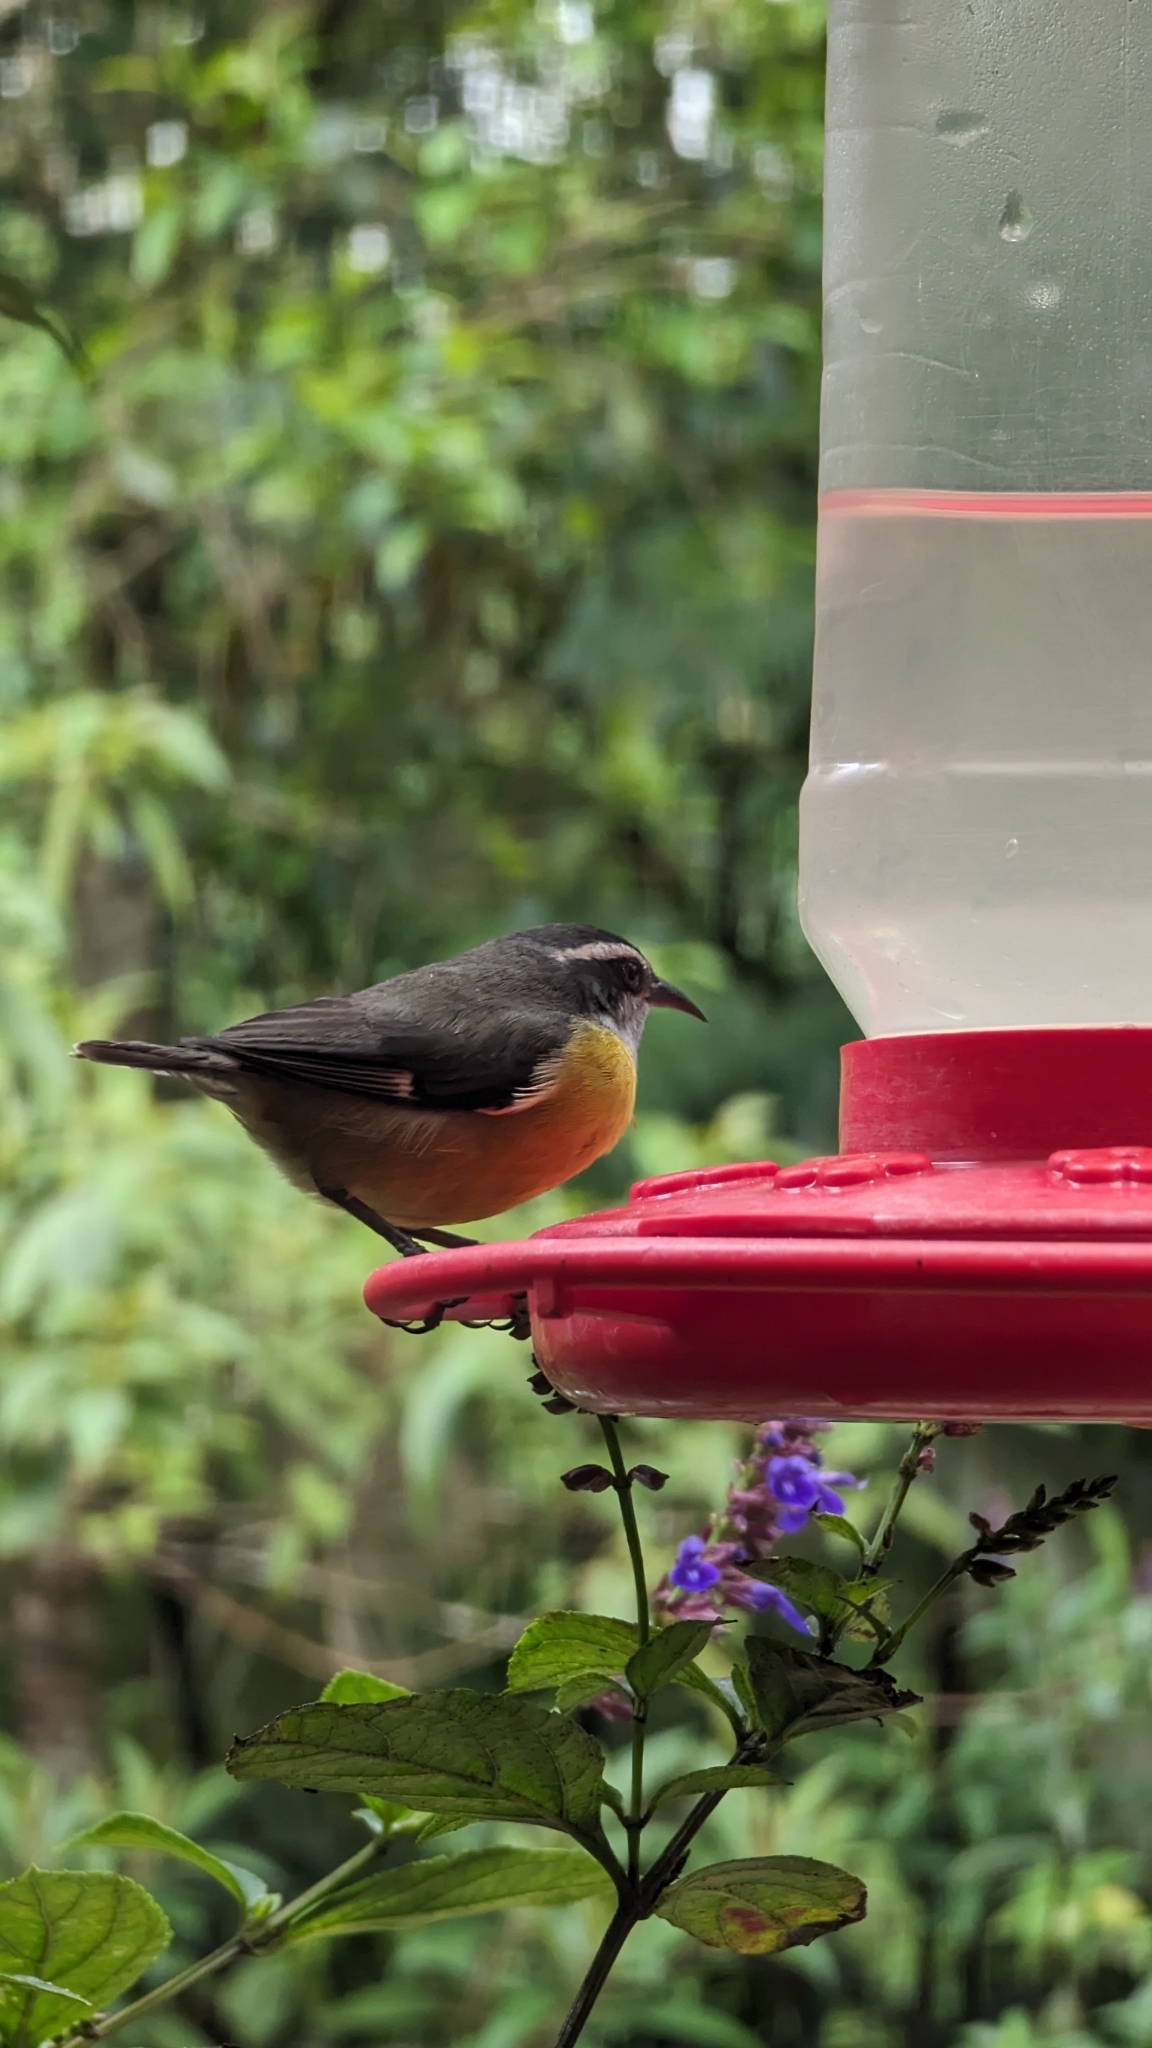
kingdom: Animalia
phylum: Chordata
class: Aves
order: Passeriformes
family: Thraupidae
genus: Coereba
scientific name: Coereba flaveola
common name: Bananaquit
